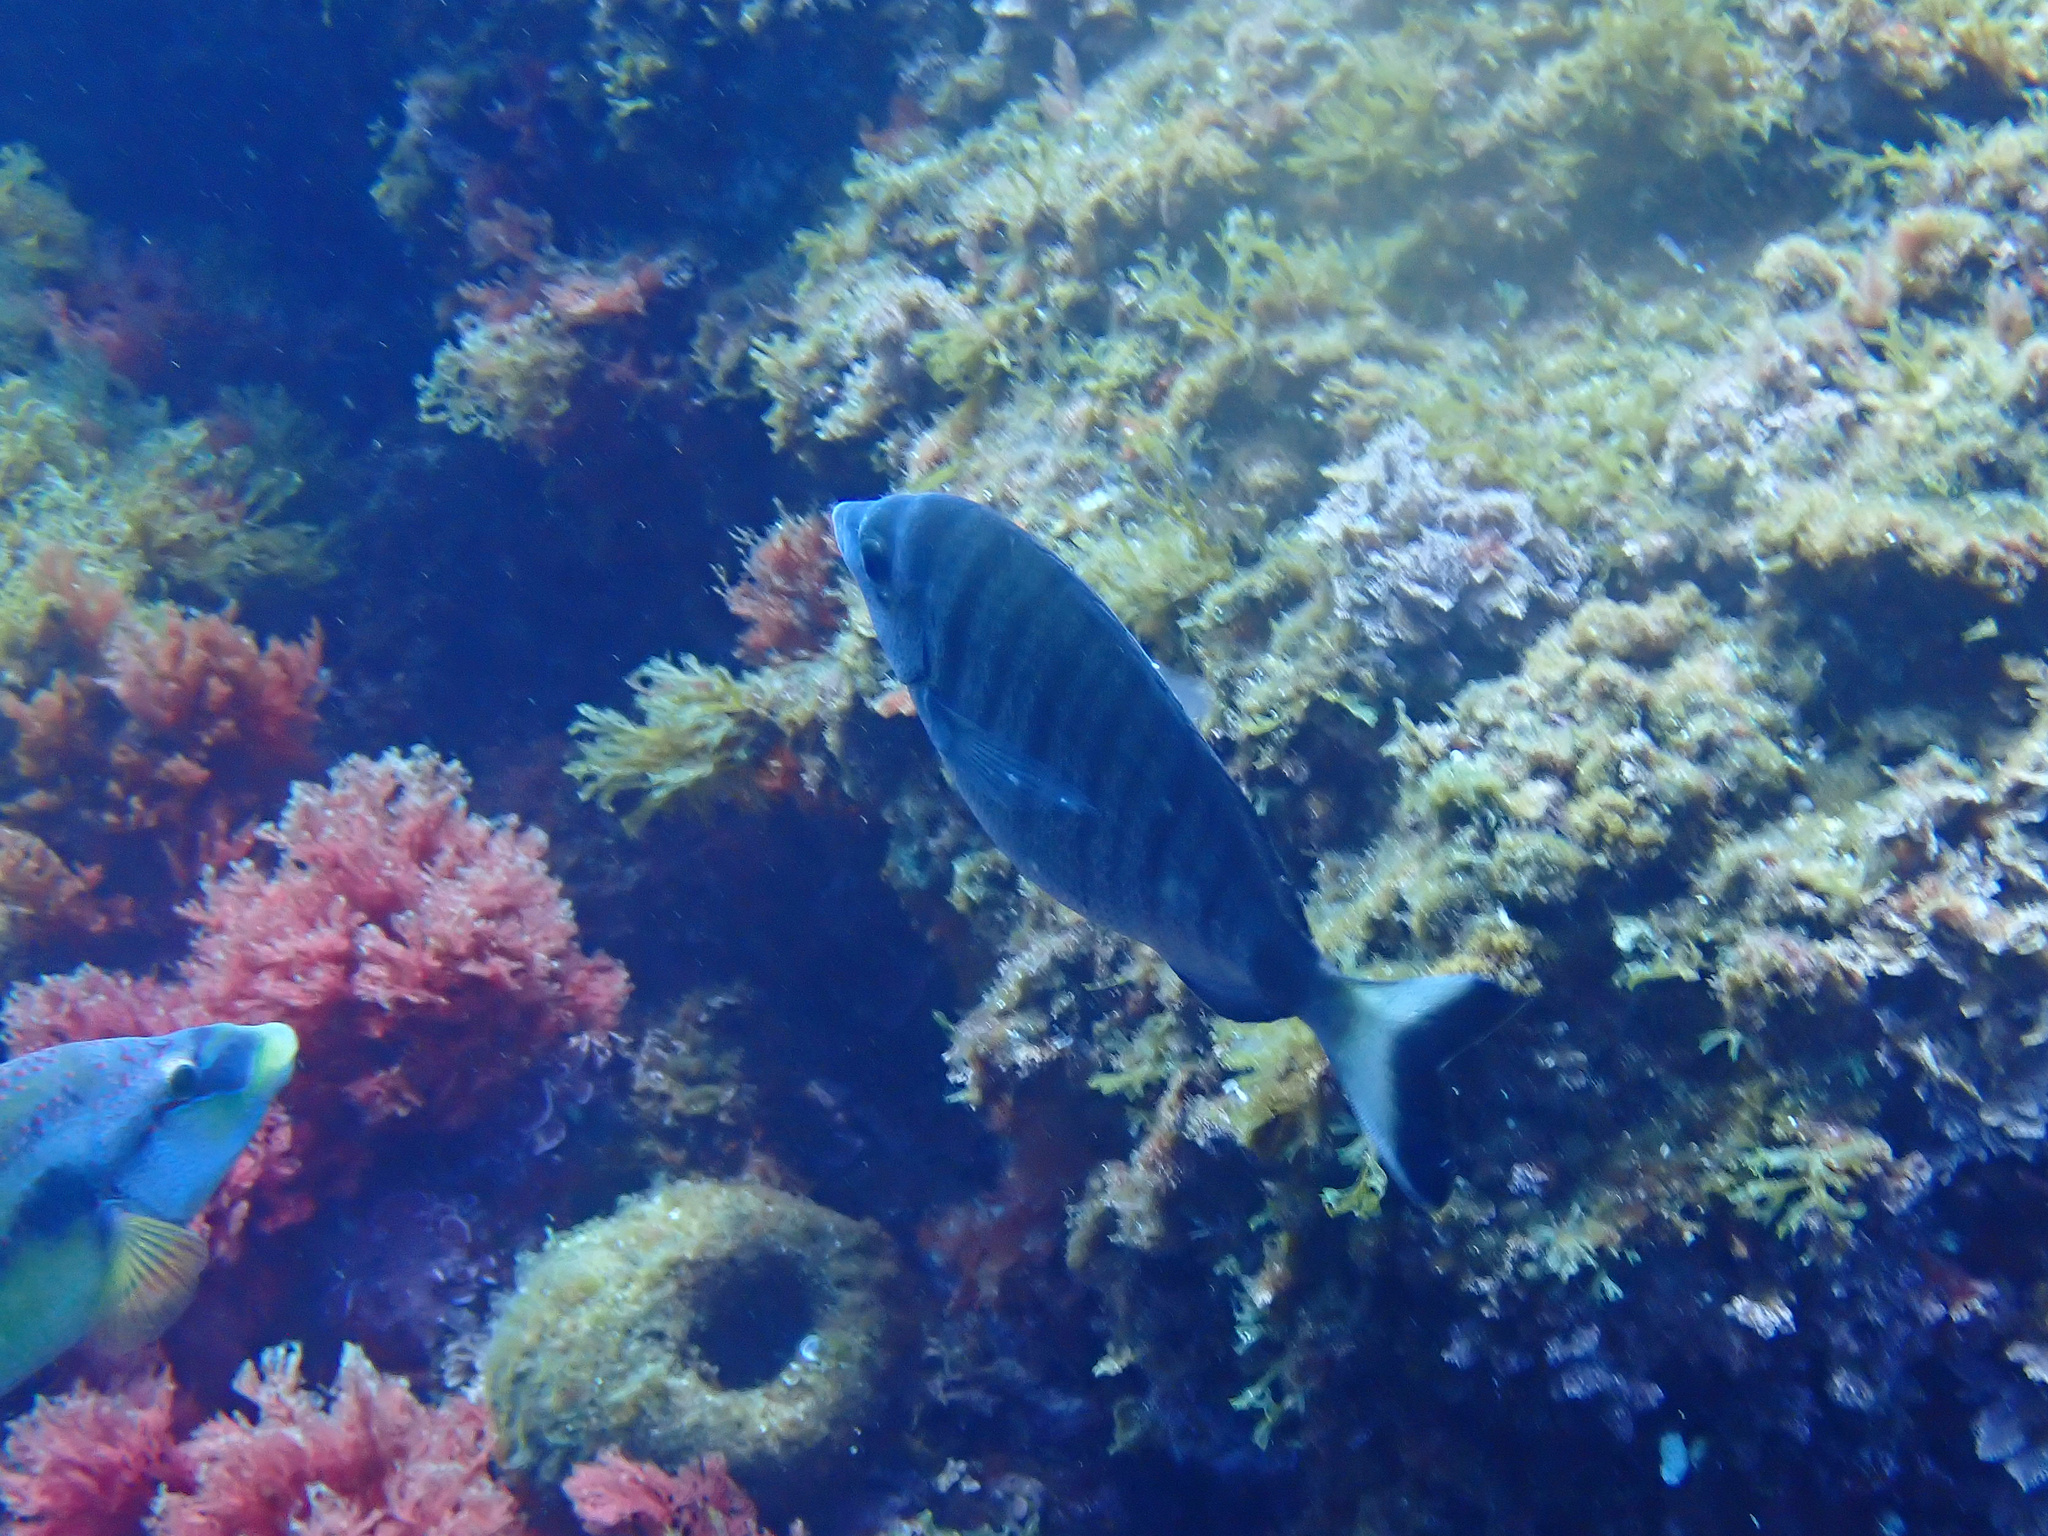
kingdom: Animalia
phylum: Chordata
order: Perciformes
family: Sparidae
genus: Diplodus
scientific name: Diplodus puntazzo
